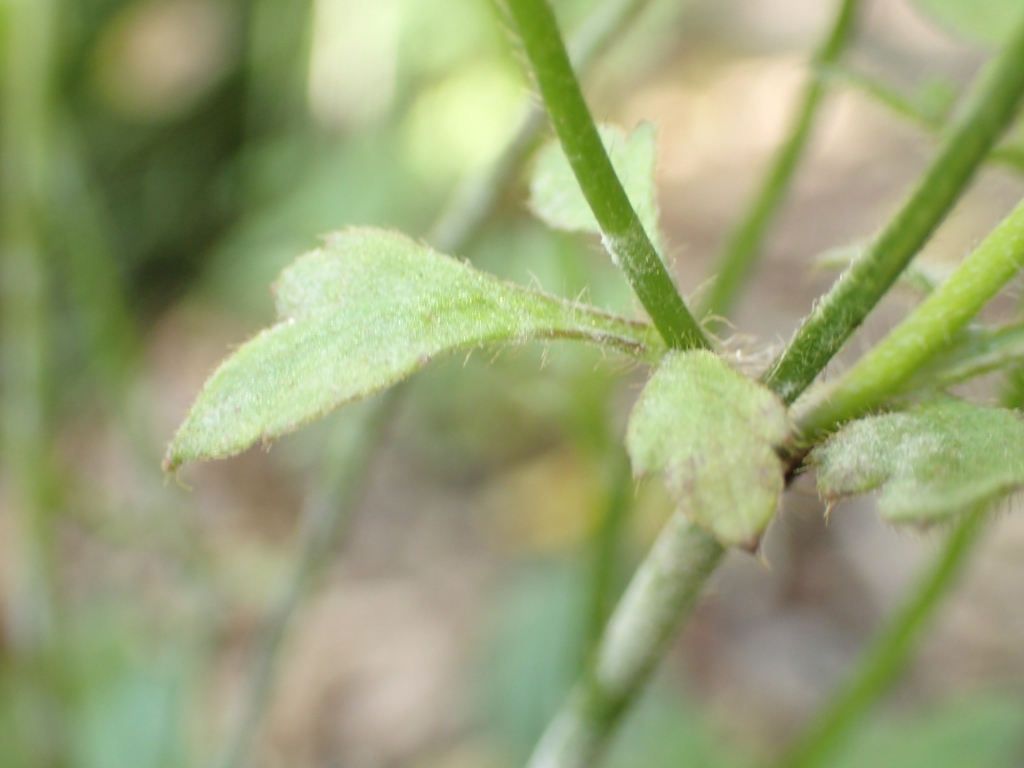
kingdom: Plantae
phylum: Tracheophyta
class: Magnoliopsida
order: Ranunculales
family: Ranunculaceae
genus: Ranunculus
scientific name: Ranunculus reflexus
